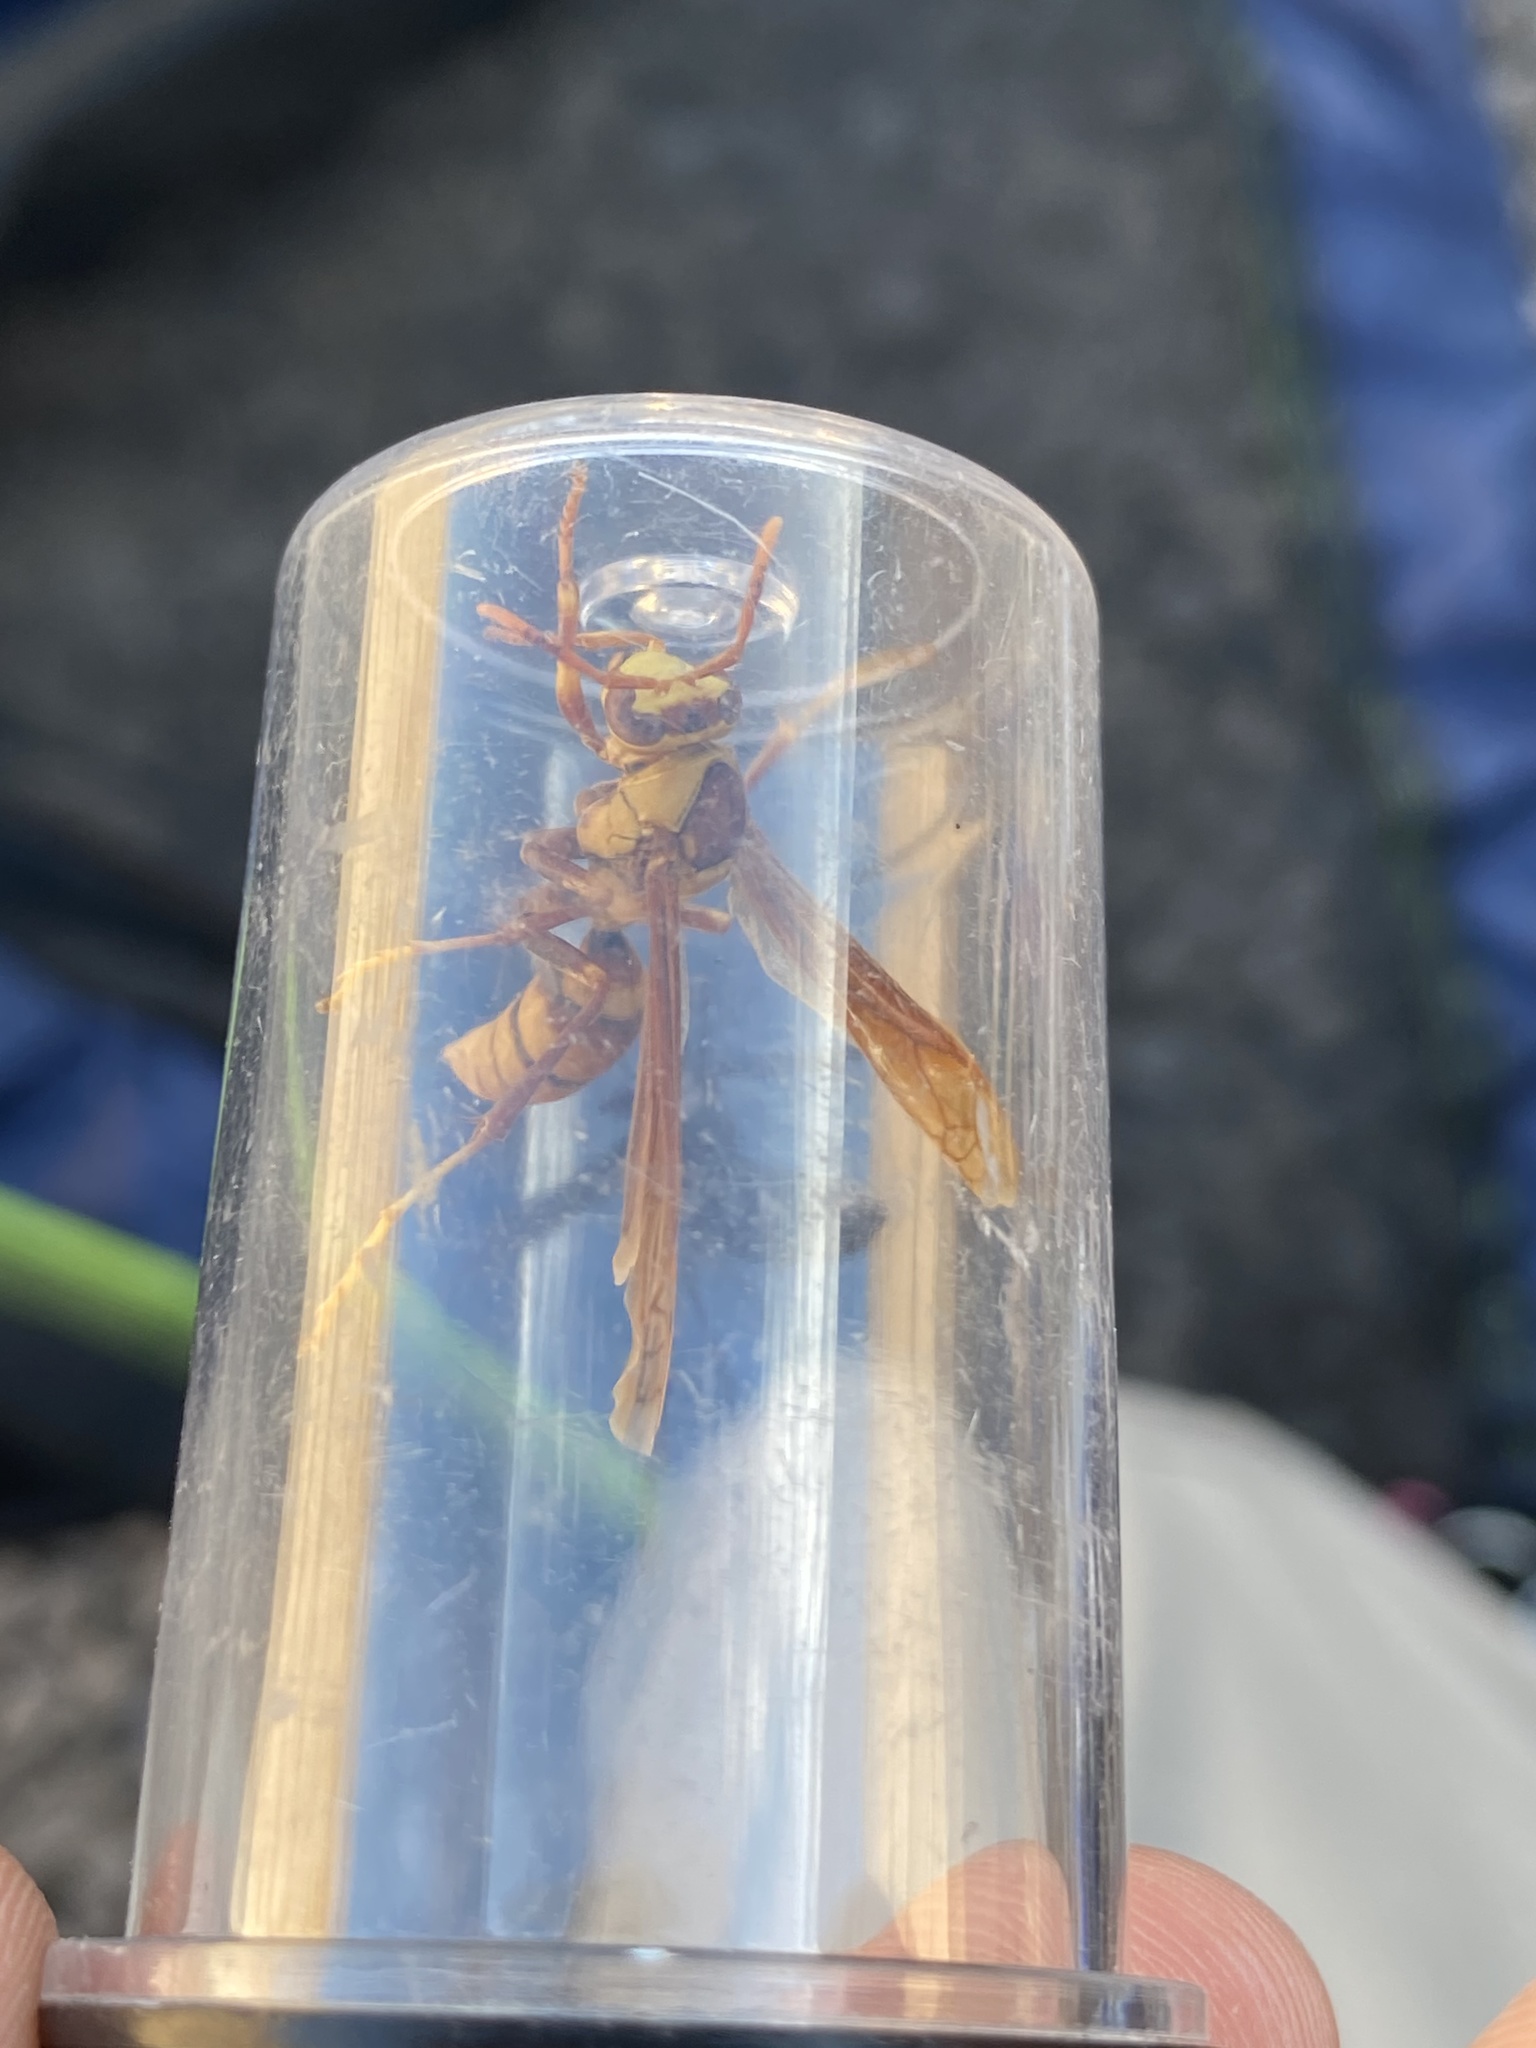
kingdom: Animalia
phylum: Arthropoda
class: Insecta
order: Hymenoptera
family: Eumenidae
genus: Polistes
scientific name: Polistes major
